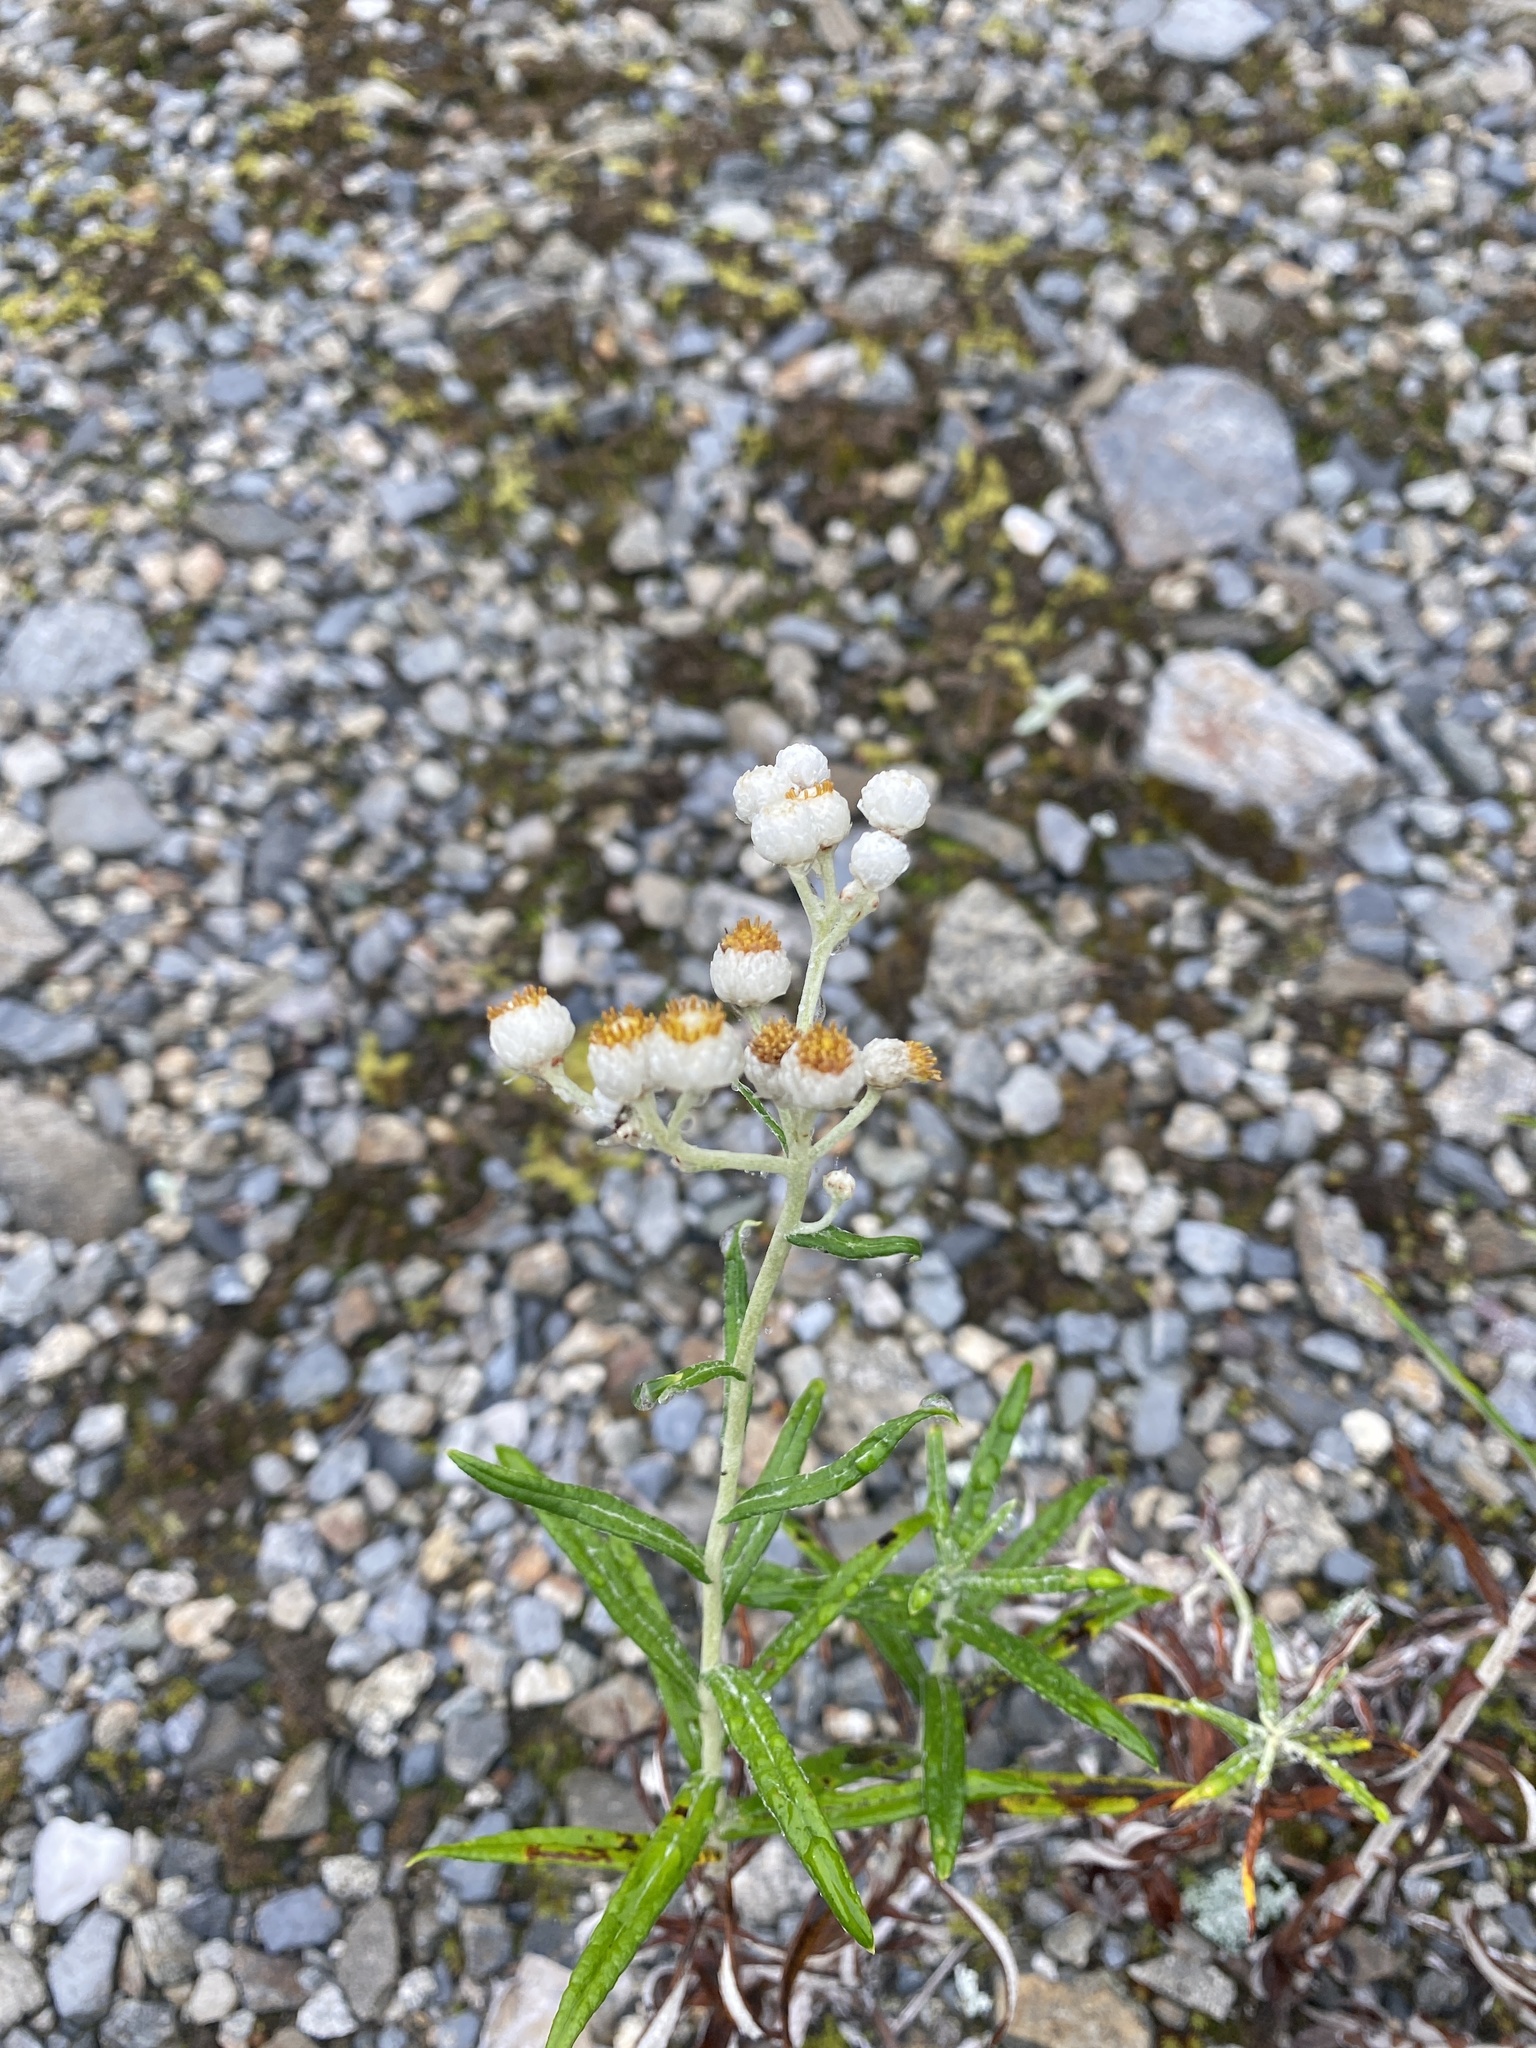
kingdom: Plantae
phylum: Tracheophyta
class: Magnoliopsida
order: Asterales
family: Asteraceae
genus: Anaphalis
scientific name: Anaphalis margaritacea
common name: Pearly everlasting
